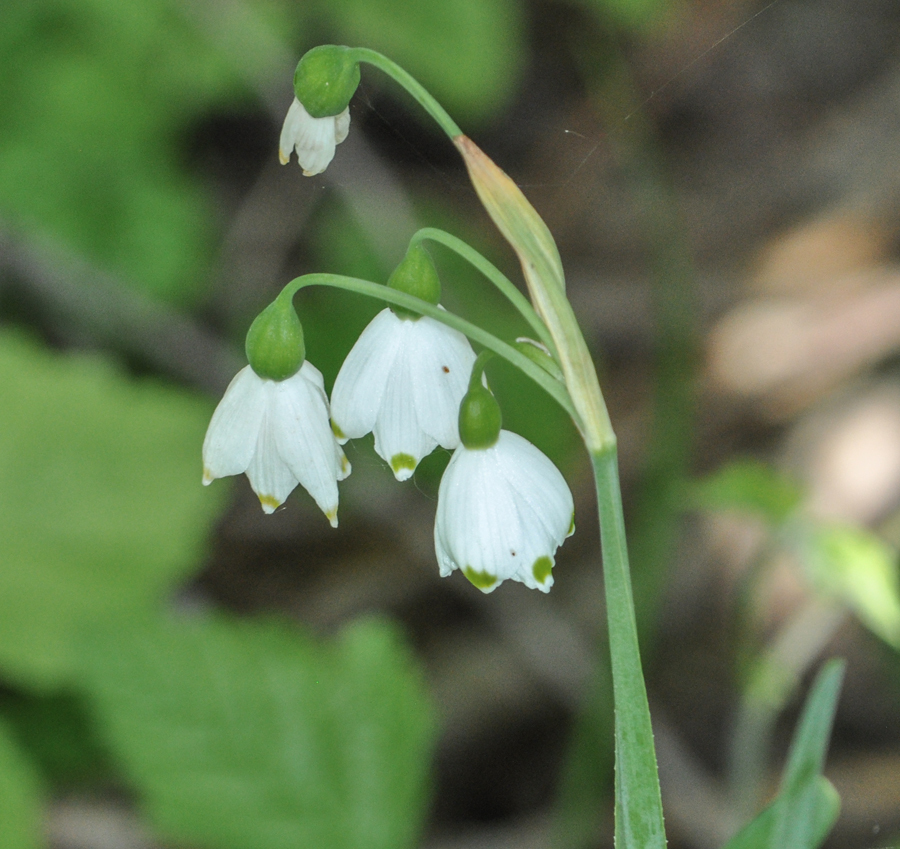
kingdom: Plantae
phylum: Tracheophyta
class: Liliopsida
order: Asparagales
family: Amaryllidaceae
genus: Leucojum
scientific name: Leucojum aestivum
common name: Summer snowflake
